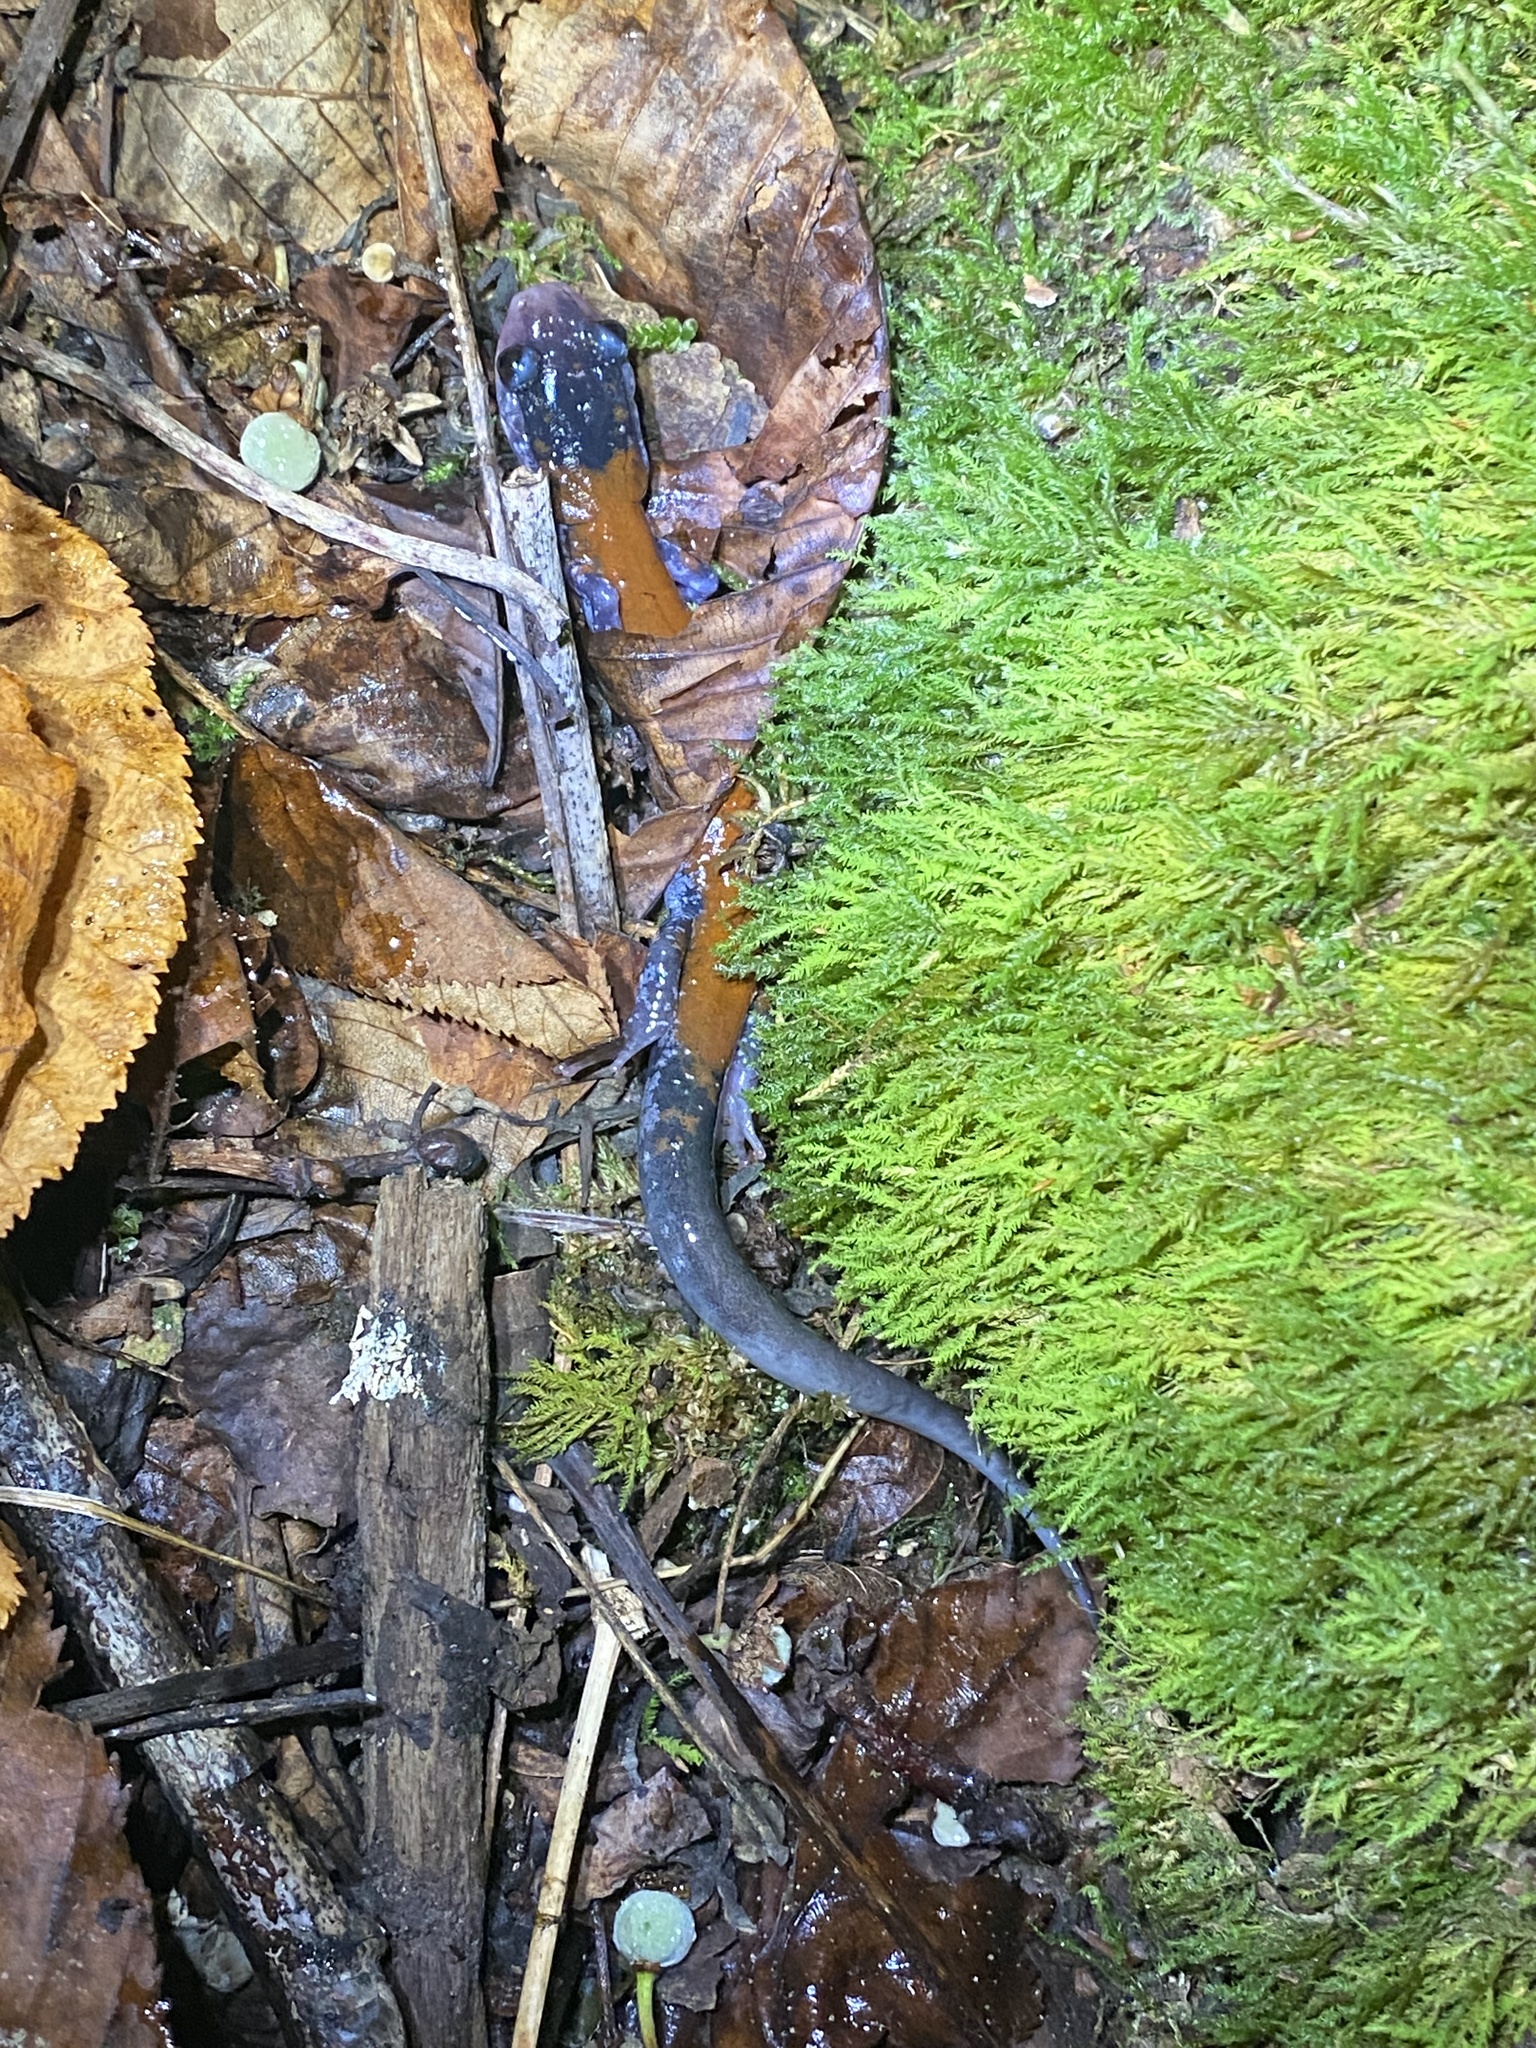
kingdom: Animalia
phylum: Chordata
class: Amphibia
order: Caudata
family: Plethodontidae
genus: Plethodon
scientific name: Plethodon yonahlossee
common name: Yonahlossee salamander
